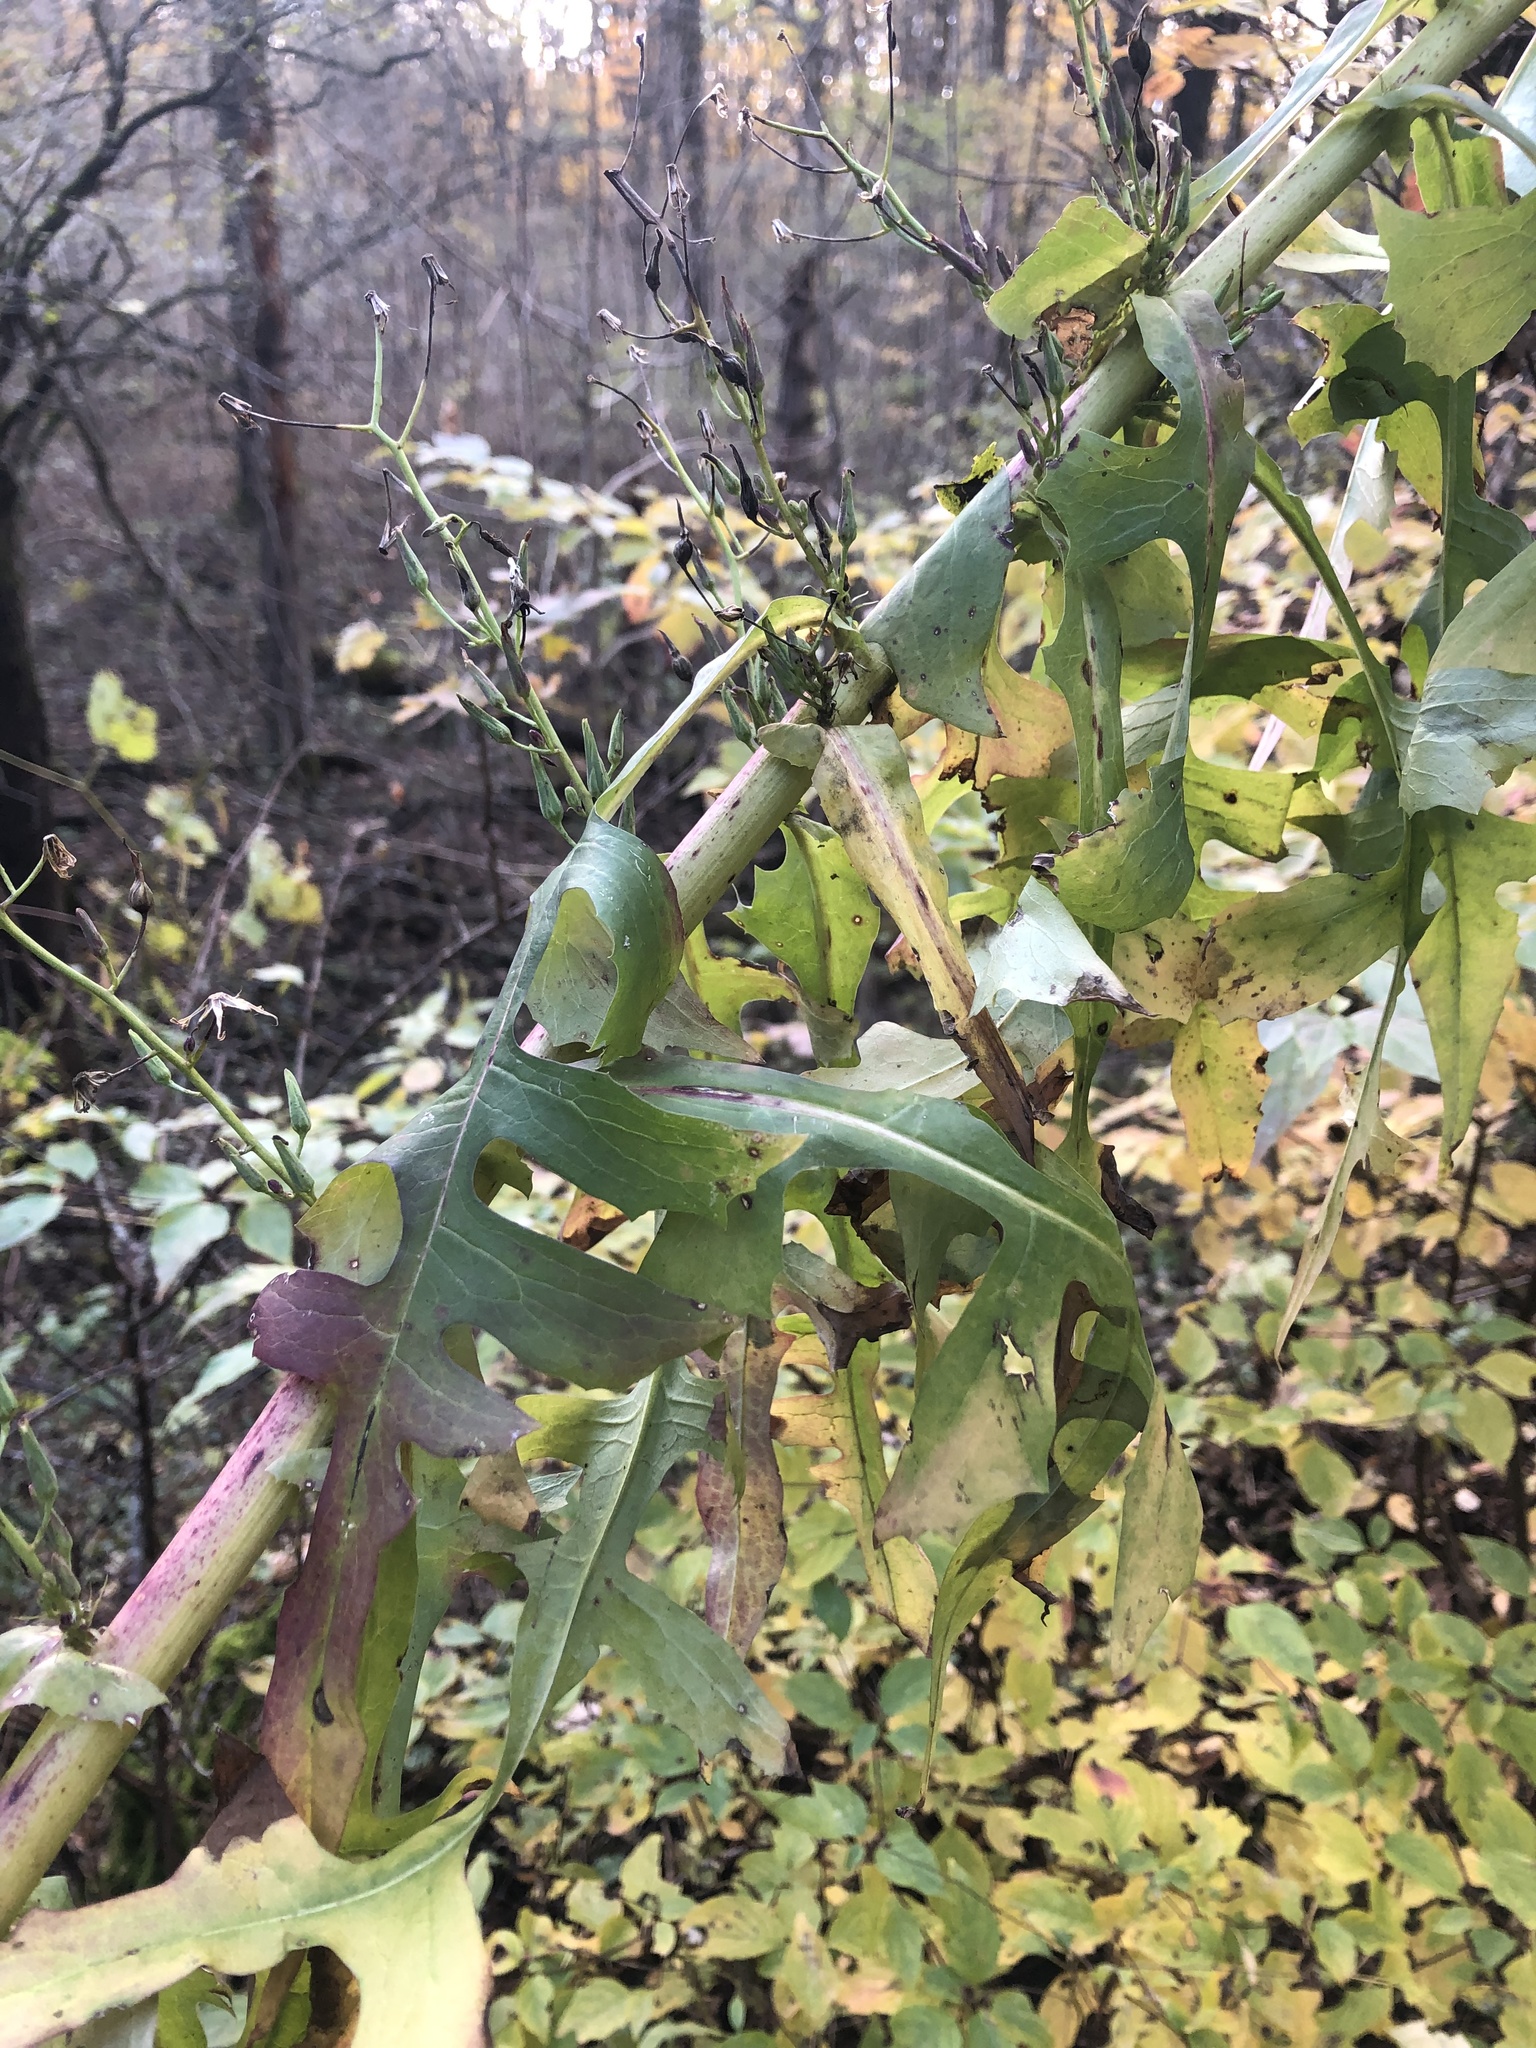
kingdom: Plantae
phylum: Tracheophyta
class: Magnoliopsida
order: Asterales
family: Asteraceae
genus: Lactuca
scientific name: Lactuca biennis
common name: Blue wood lettuce
